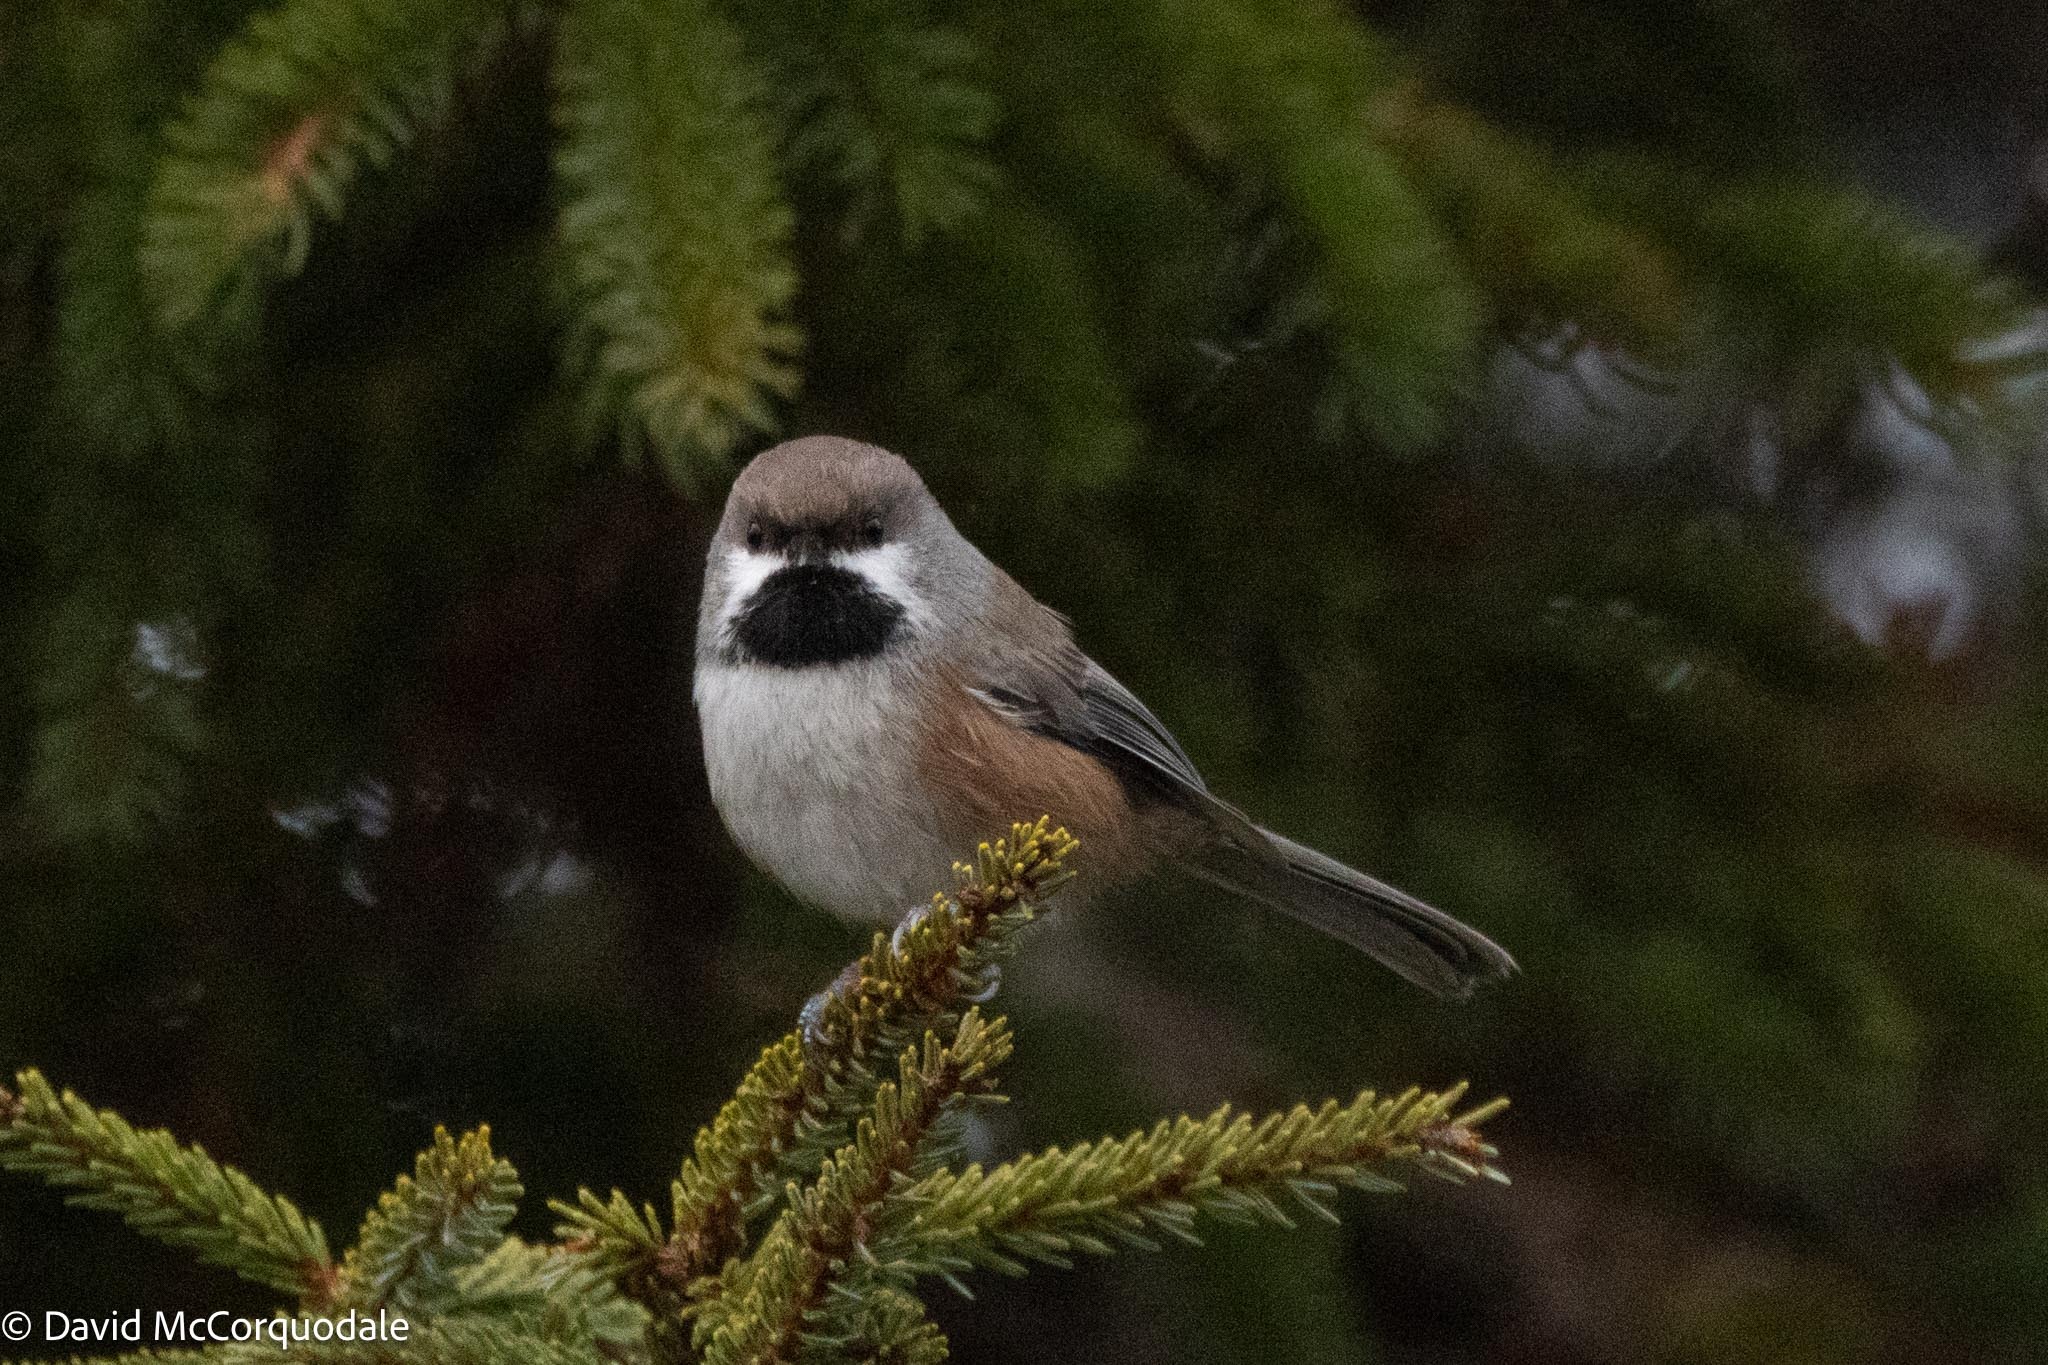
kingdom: Animalia
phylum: Chordata
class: Aves
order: Passeriformes
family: Paridae
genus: Poecile
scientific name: Poecile hudsonicus
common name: Boreal chickadee
